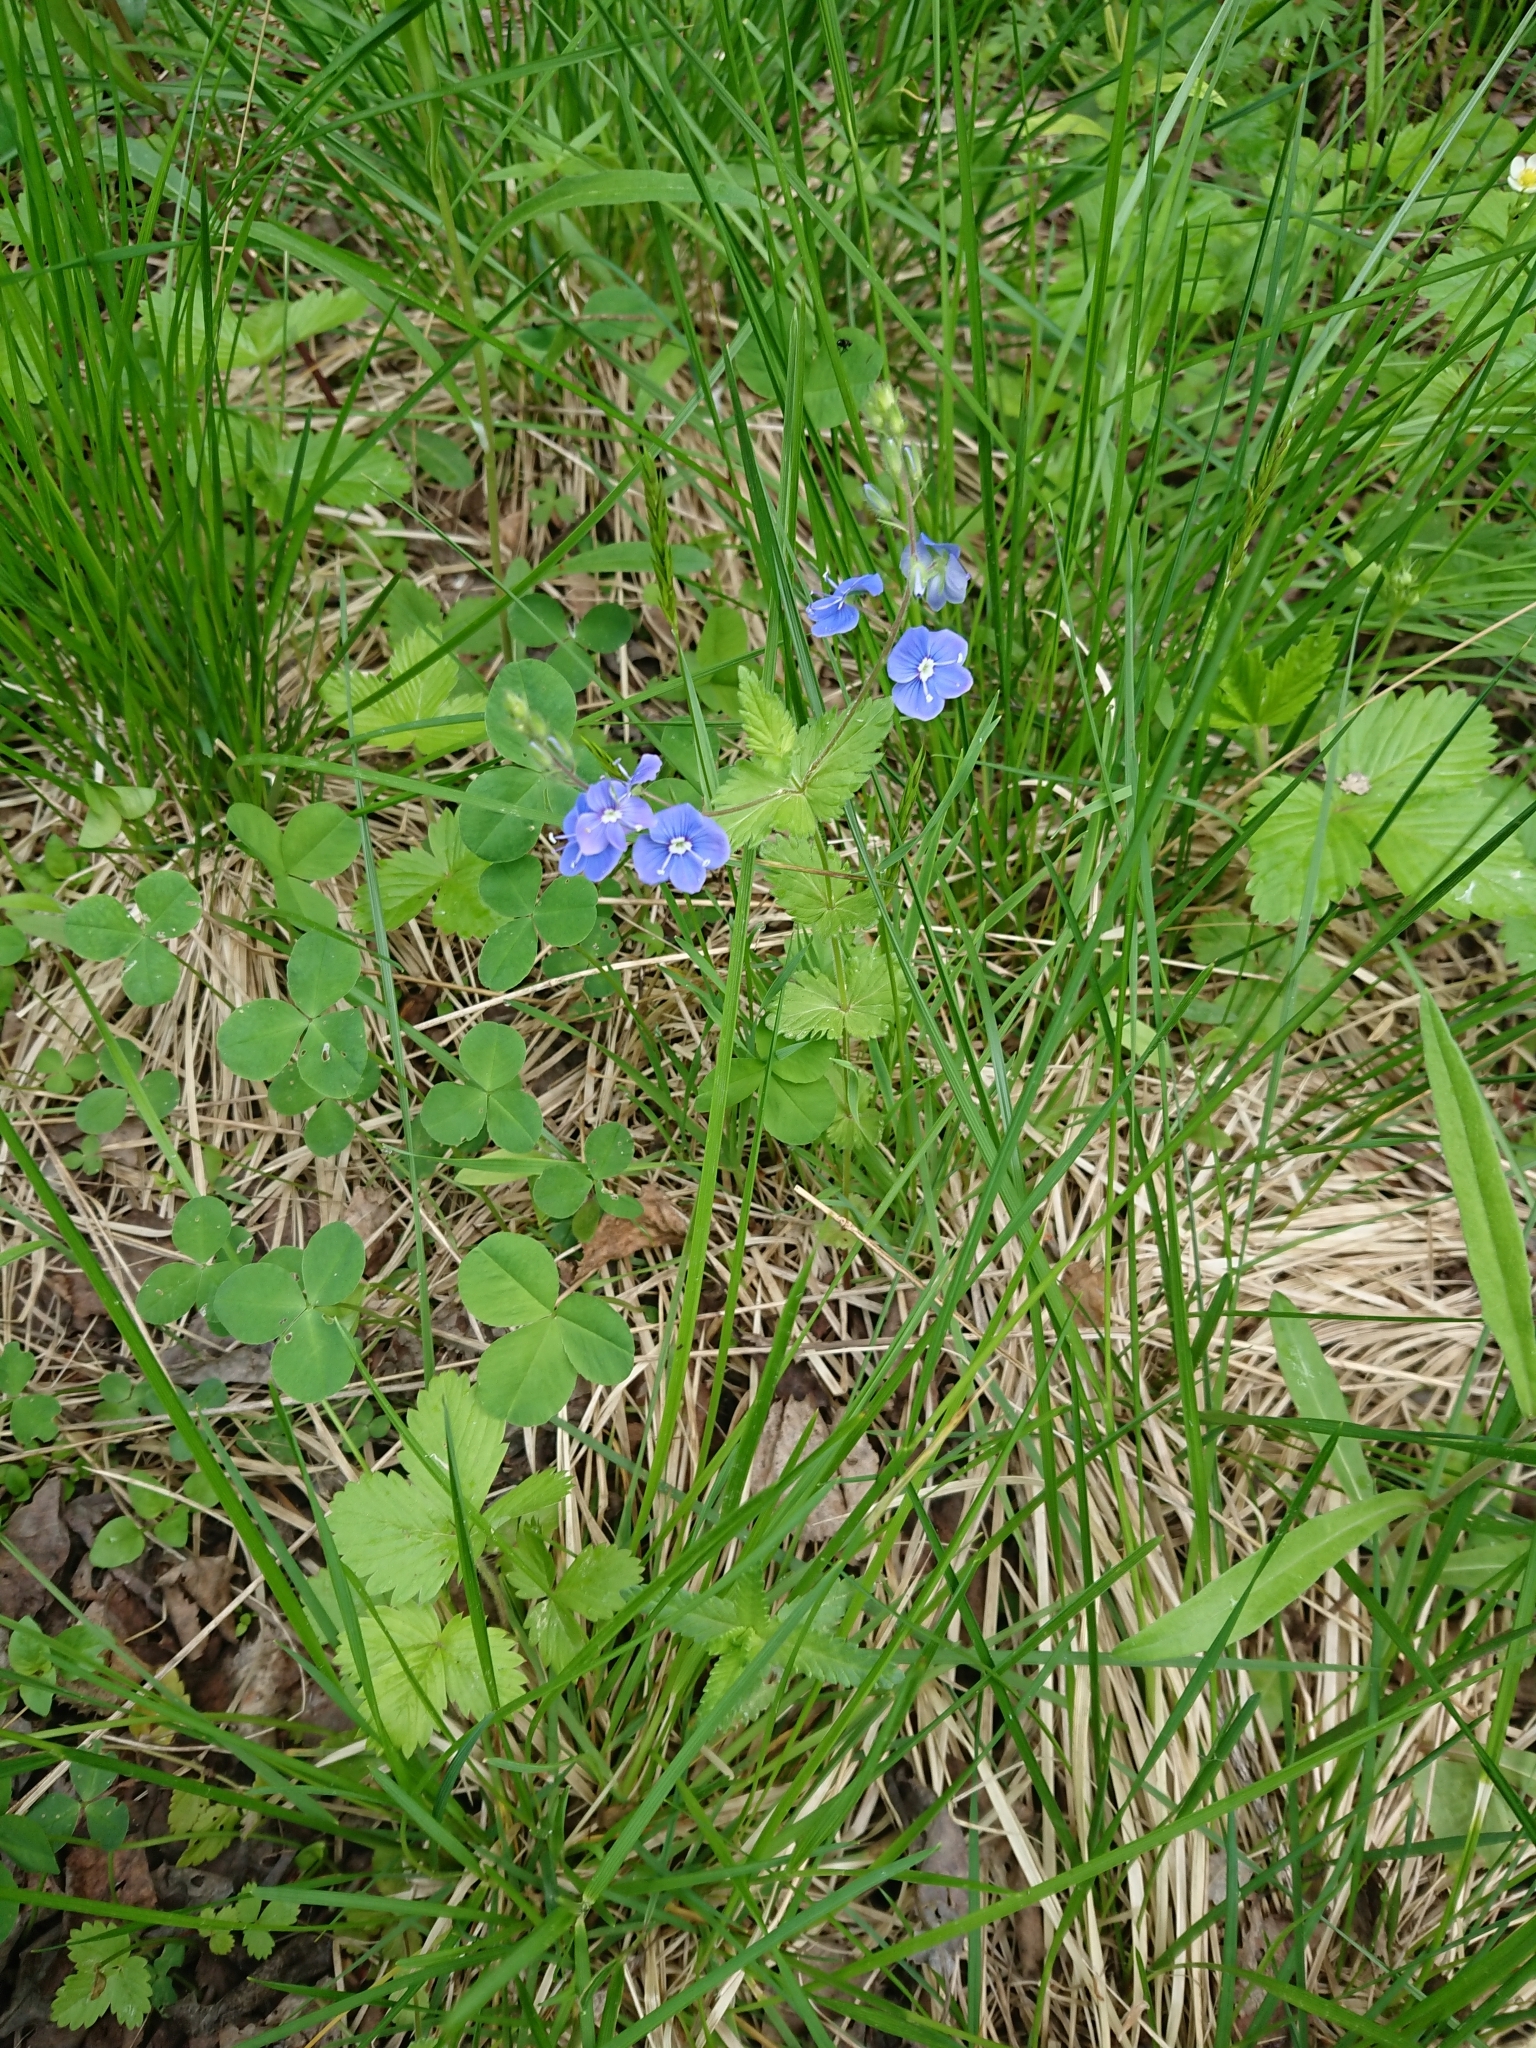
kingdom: Plantae
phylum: Tracheophyta
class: Magnoliopsida
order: Lamiales
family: Plantaginaceae
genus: Veronica
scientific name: Veronica chamaedrys
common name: Germander speedwell
